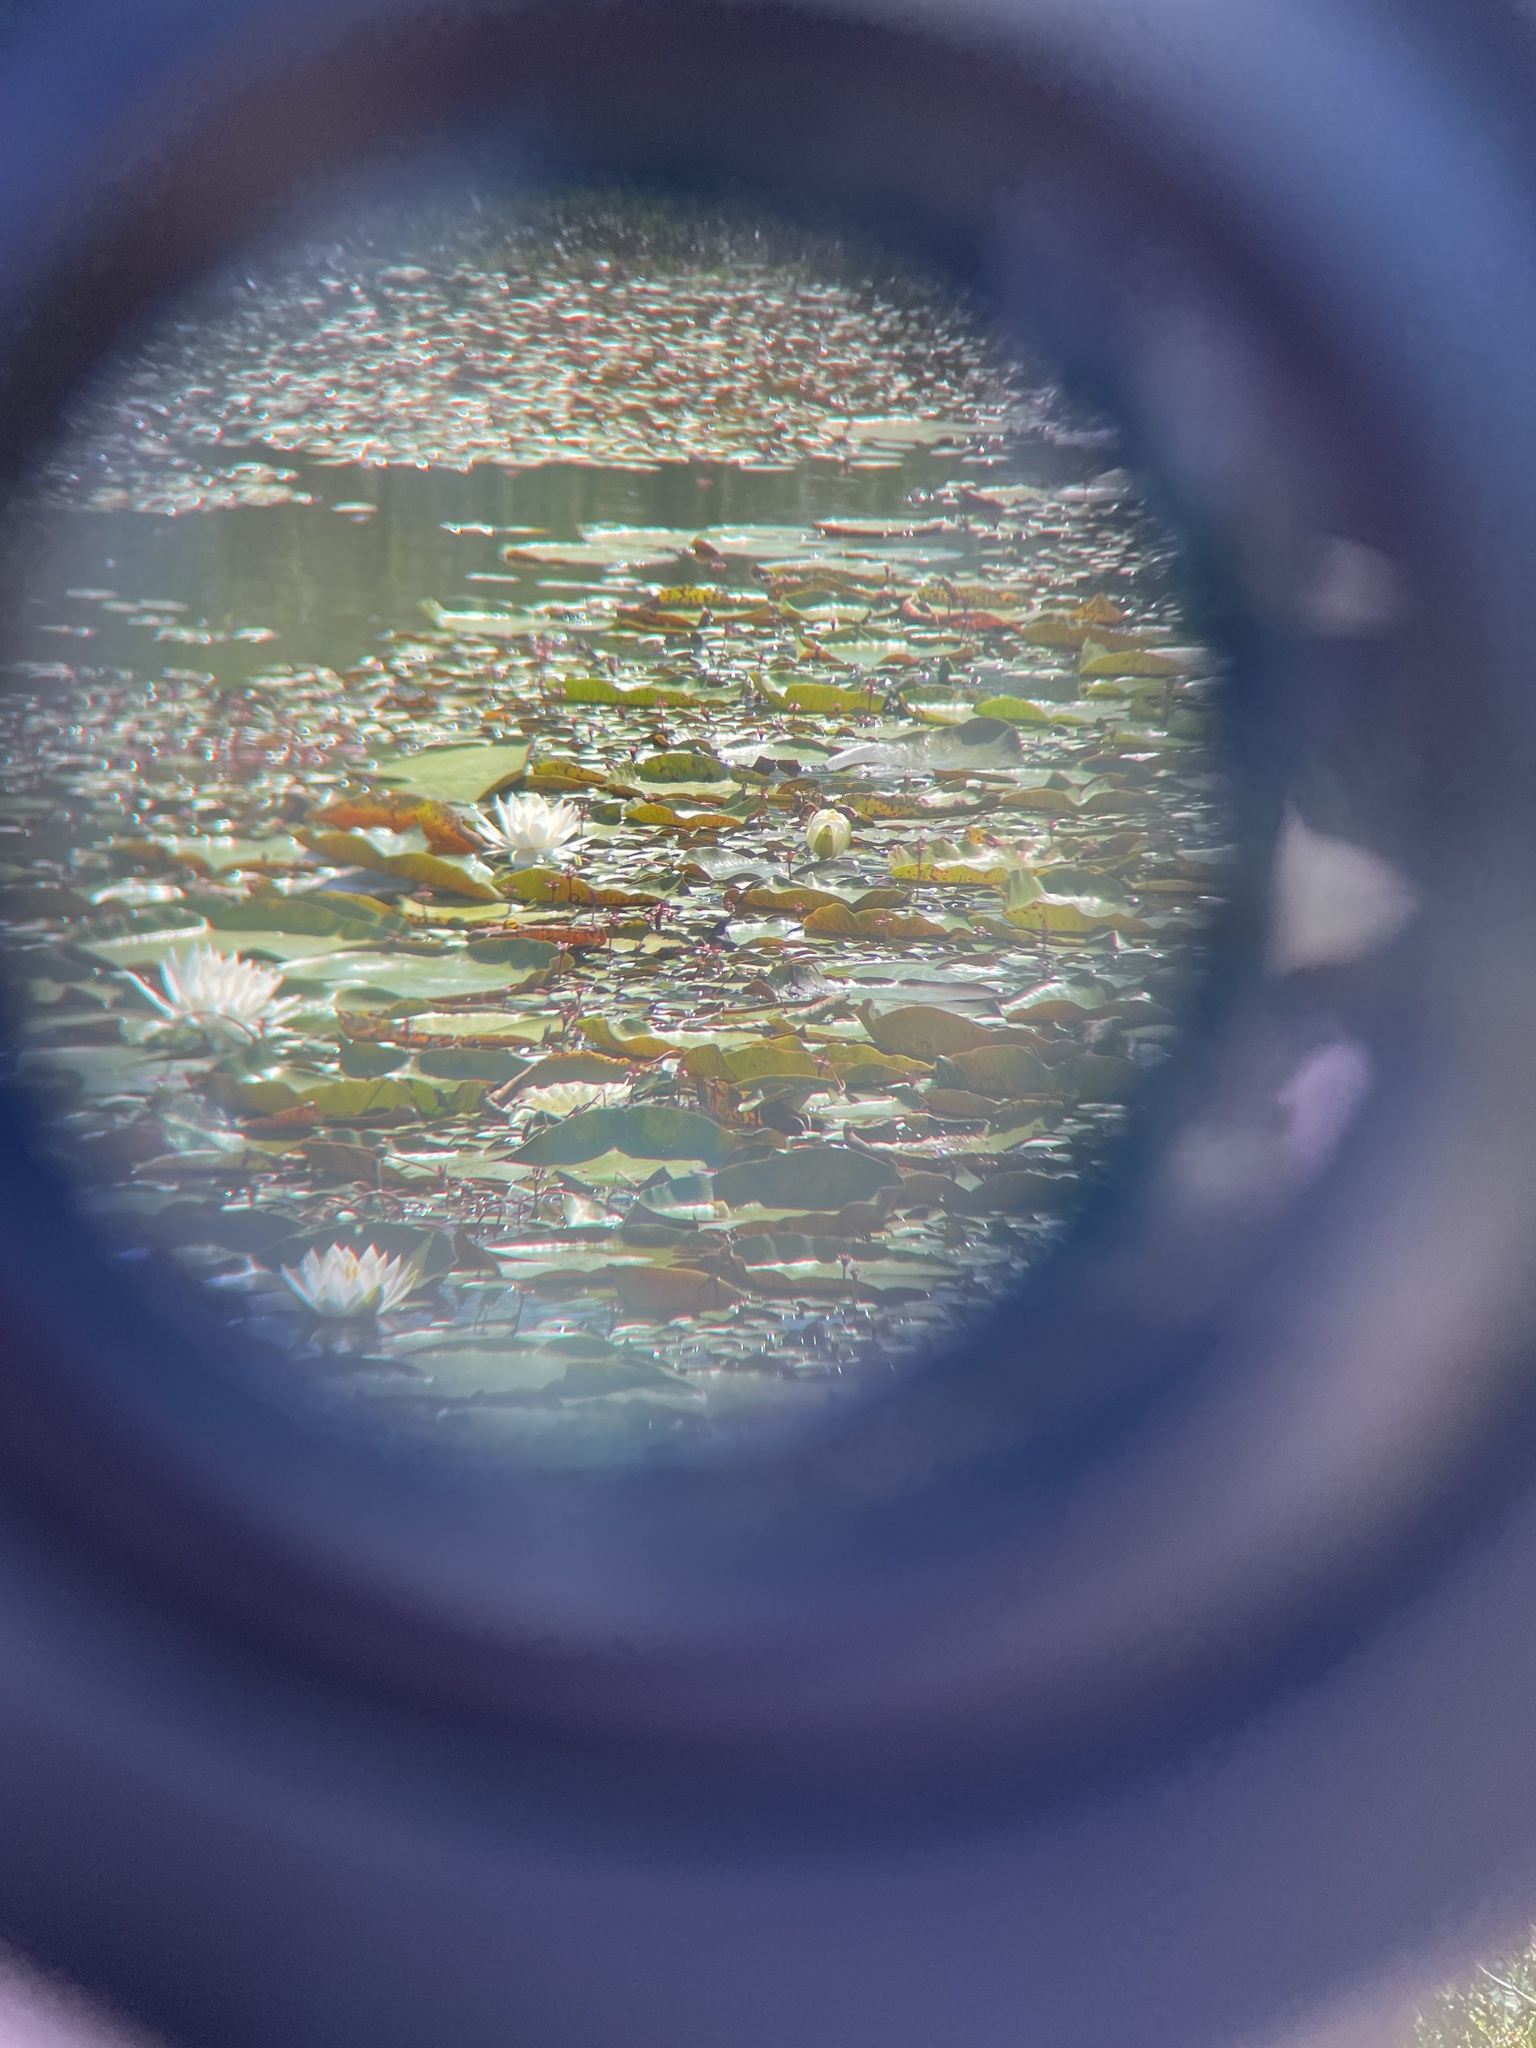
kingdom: Animalia
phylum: Chordata
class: Crocodylia
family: Alligatoridae
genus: Alligator
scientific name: Alligator mississippiensis
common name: American alligator
